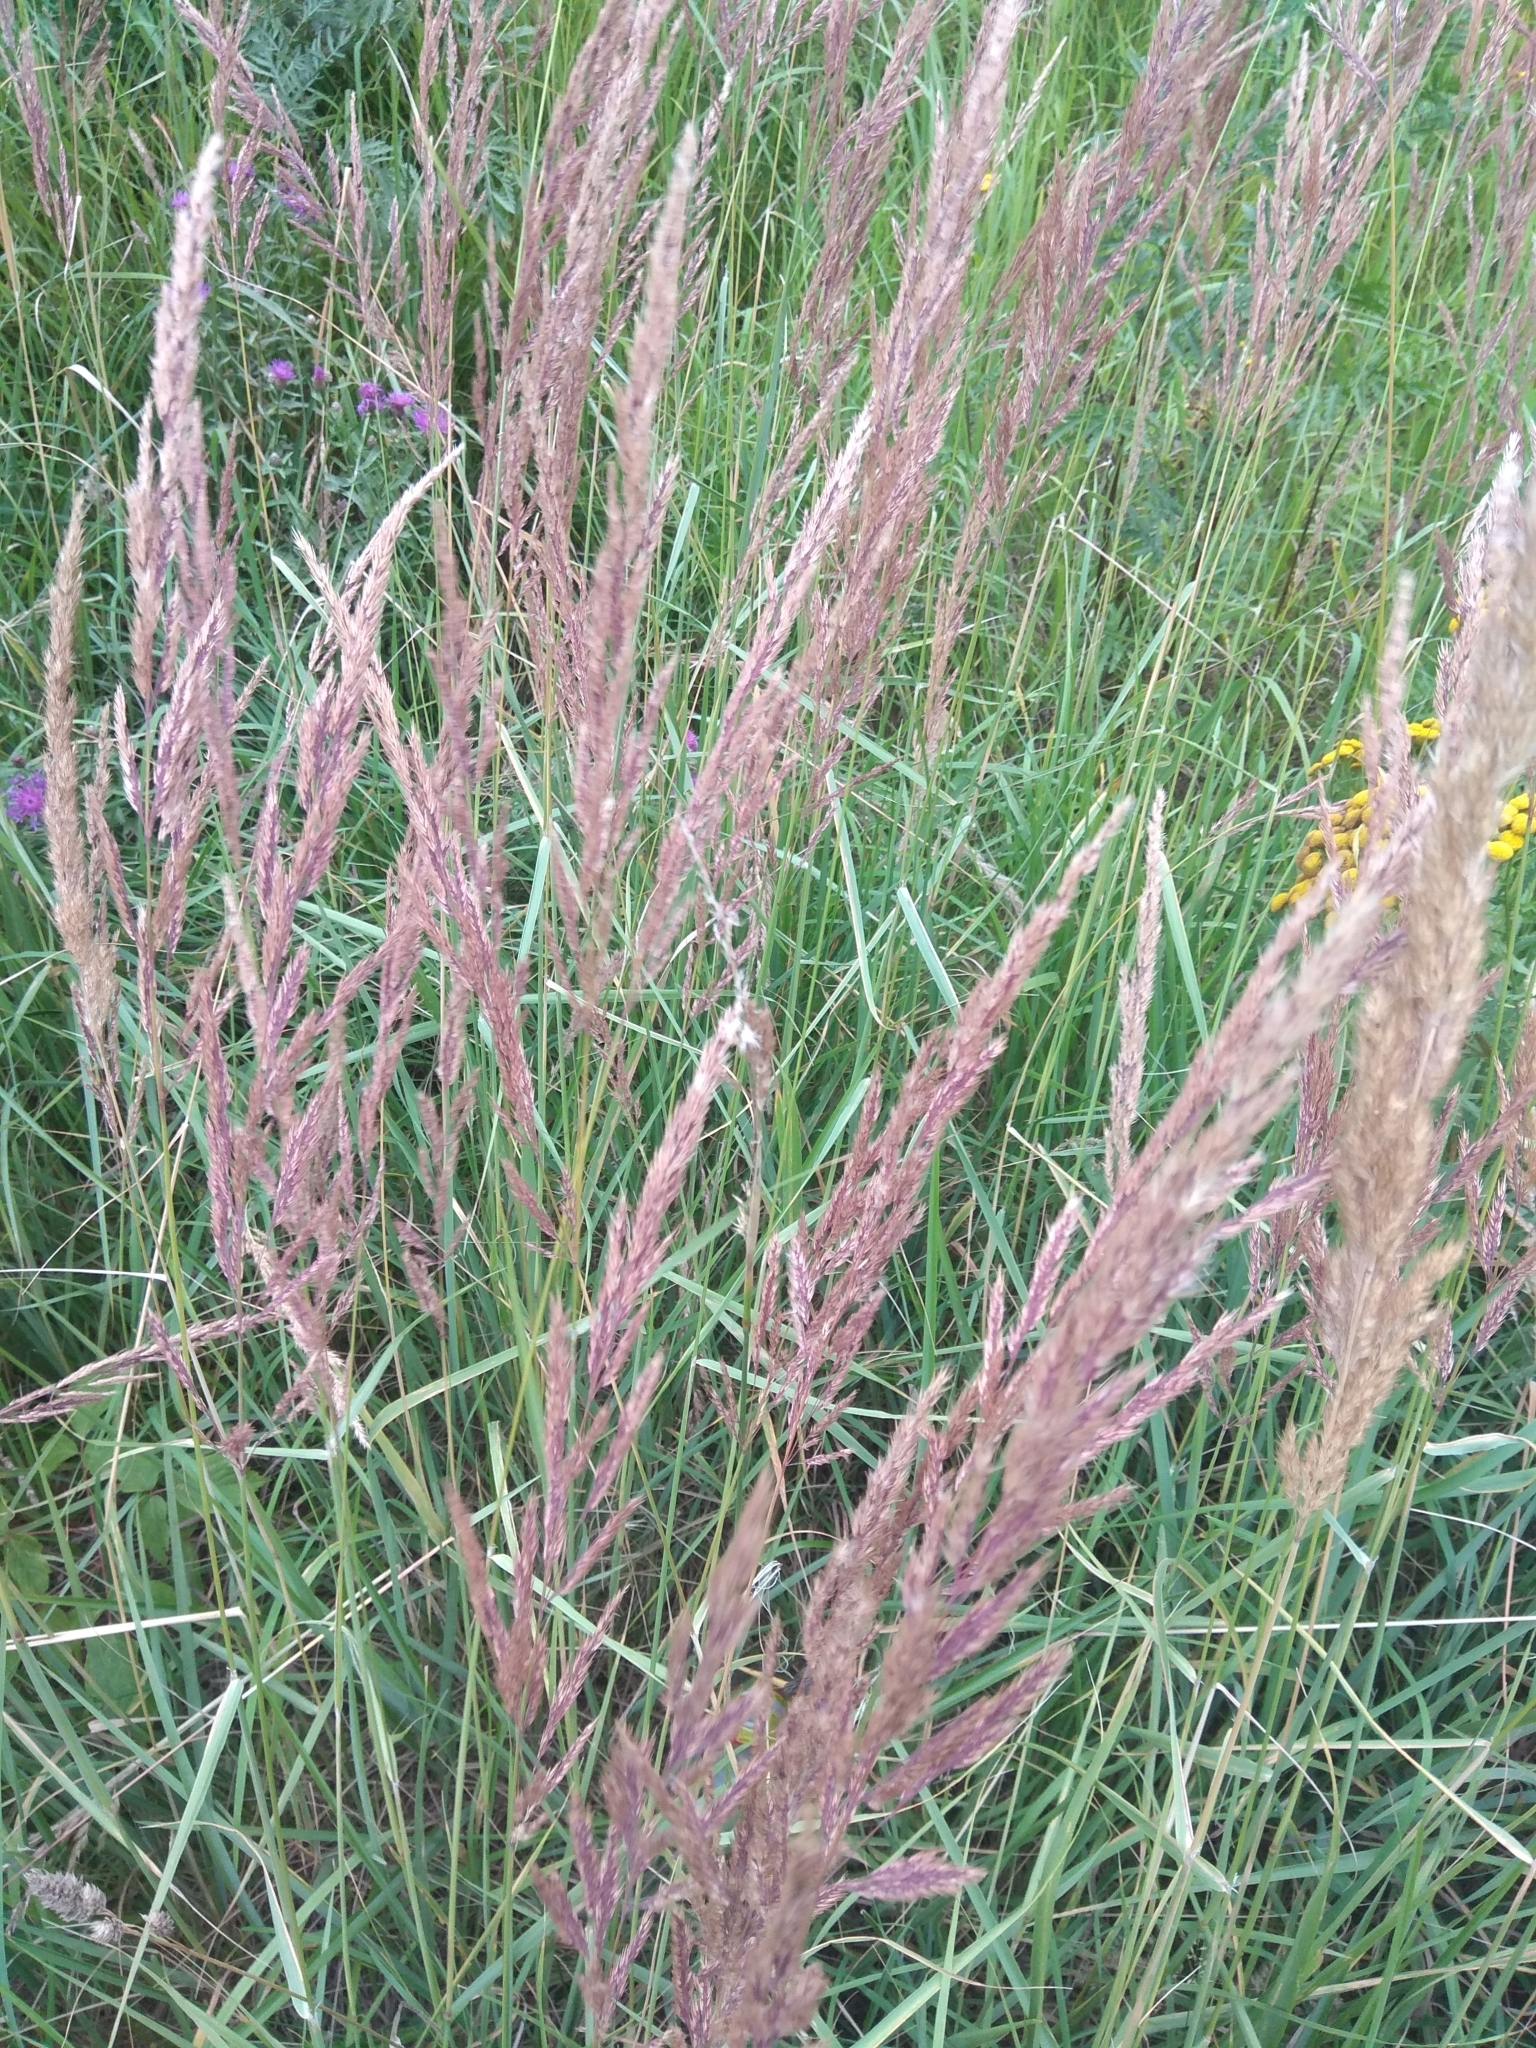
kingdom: Plantae
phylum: Tracheophyta
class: Liliopsida
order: Poales
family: Poaceae
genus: Calamagrostis
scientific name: Calamagrostis epigejos
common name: Wood small-reed
